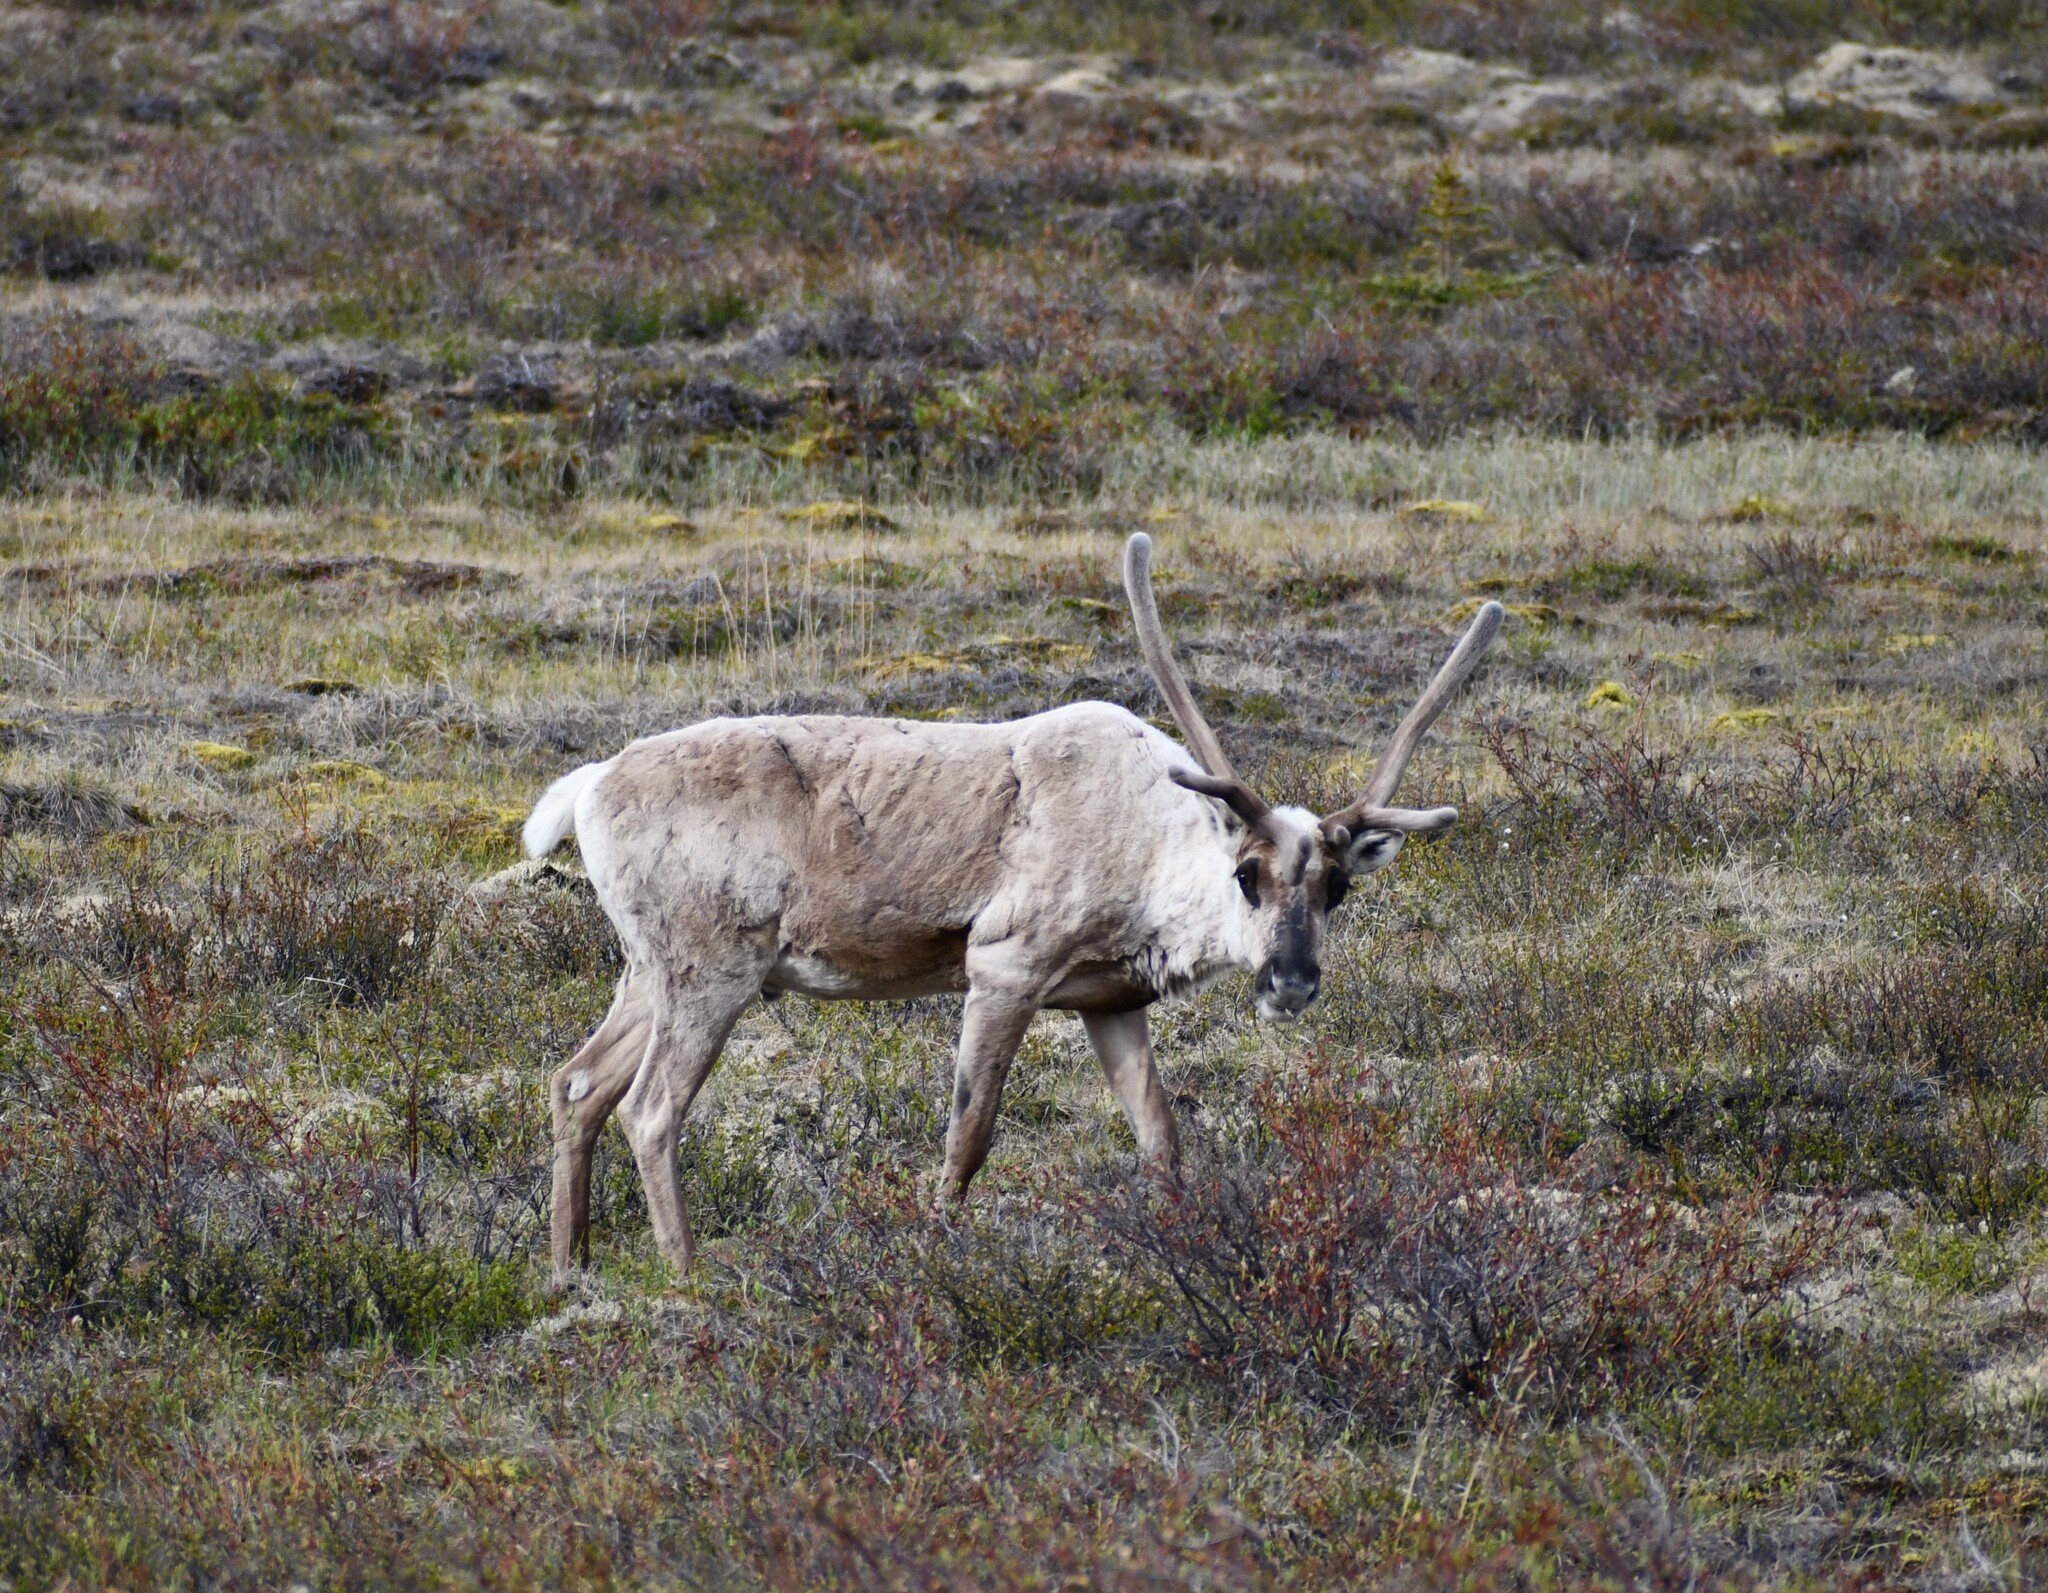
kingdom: Animalia
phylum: Chordata
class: Mammalia
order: Artiodactyla
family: Cervidae
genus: Rangifer
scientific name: Rangifer tarandus
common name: Reindeer
